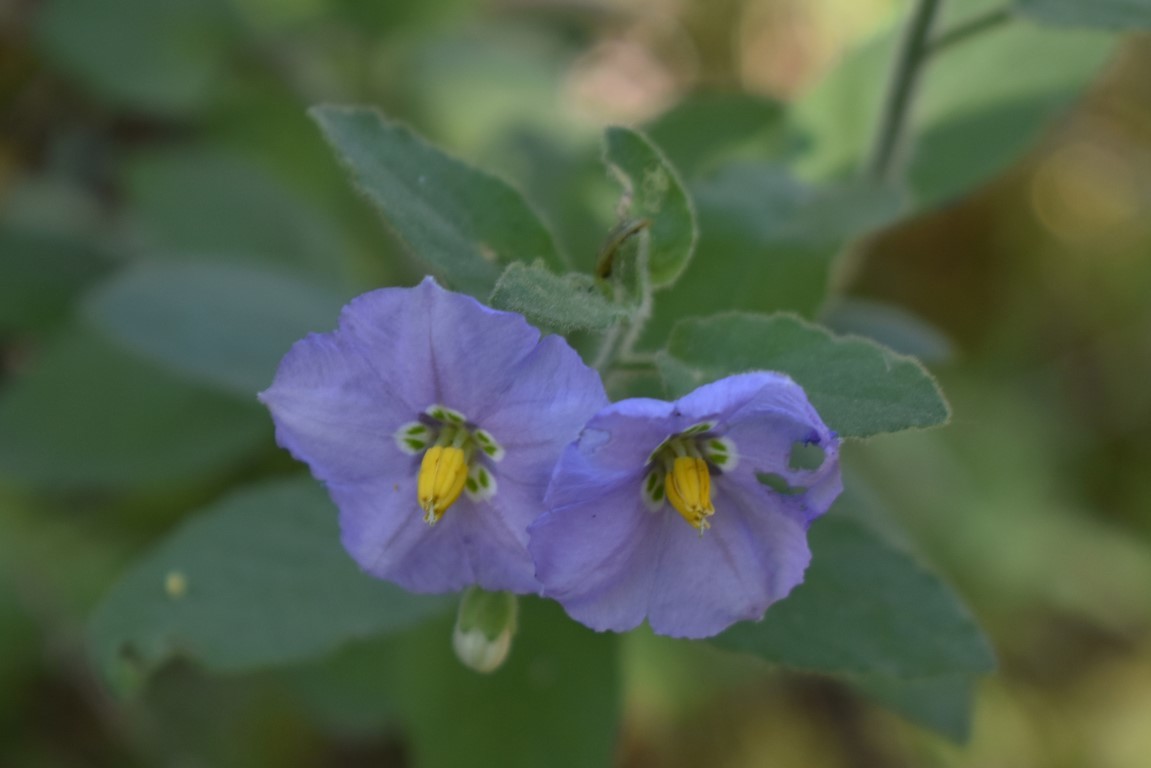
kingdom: Plantae
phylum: Tracheophyta
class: Magnoliopsida
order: Solanales
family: Solanaceae
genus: Solanum
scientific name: Solanum umbelliferum
